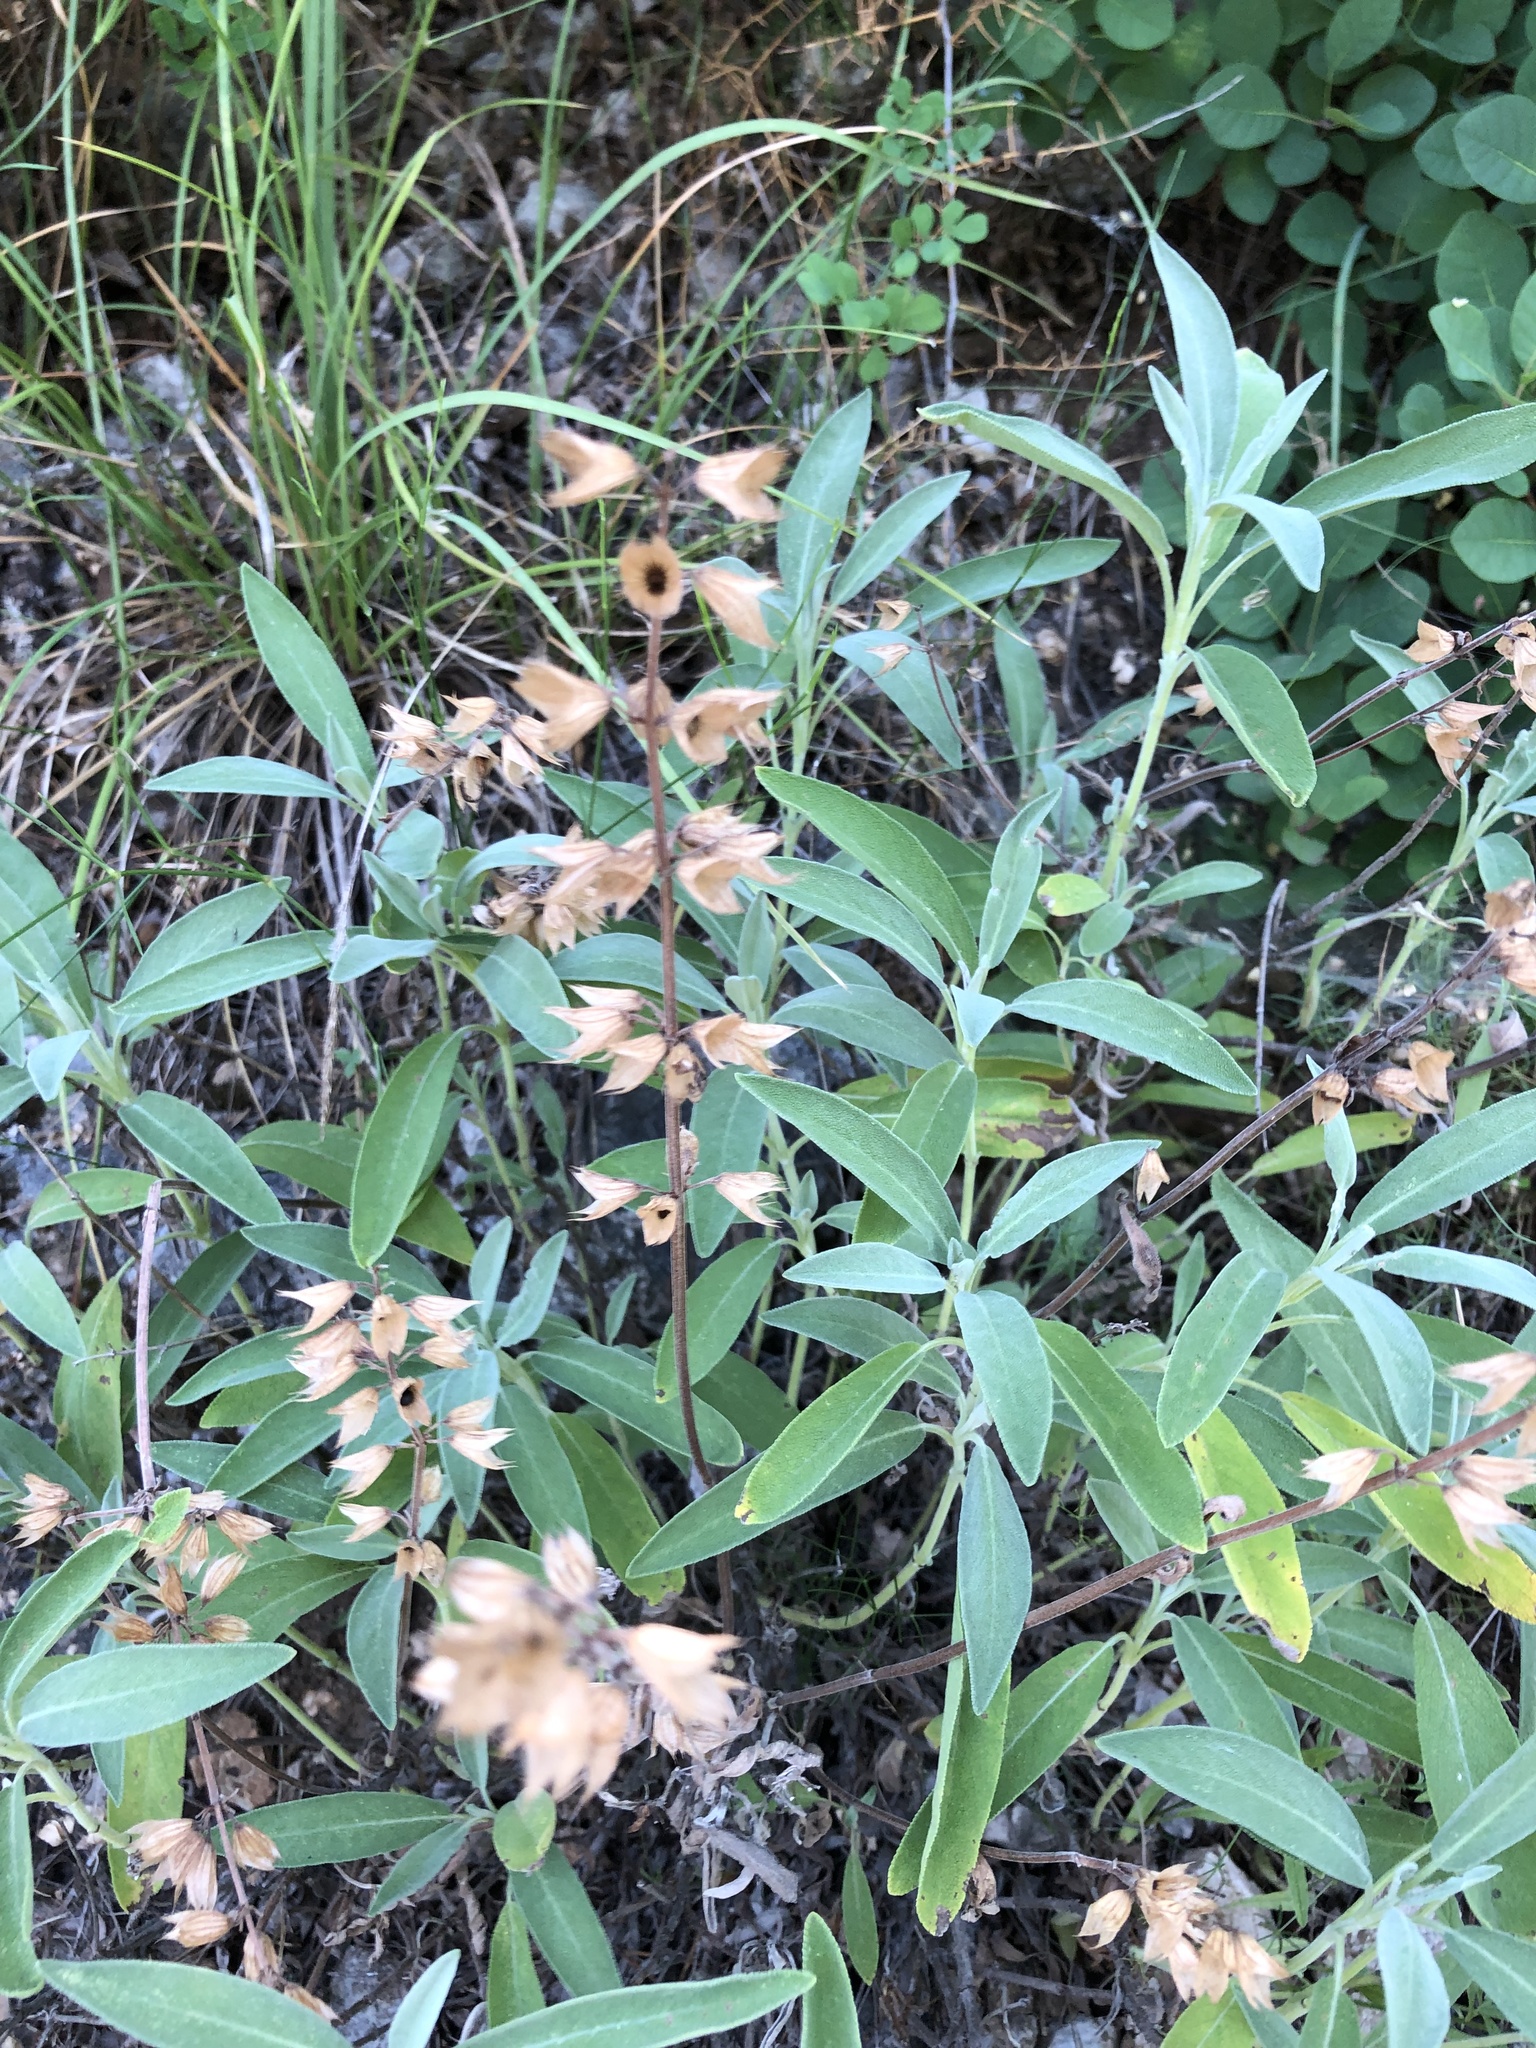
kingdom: Plantae
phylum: Tracheophyta
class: Magnoliopsida
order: Lamiales
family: Lamiaceae
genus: Salvia
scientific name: Salvia officinalis
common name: Sage
